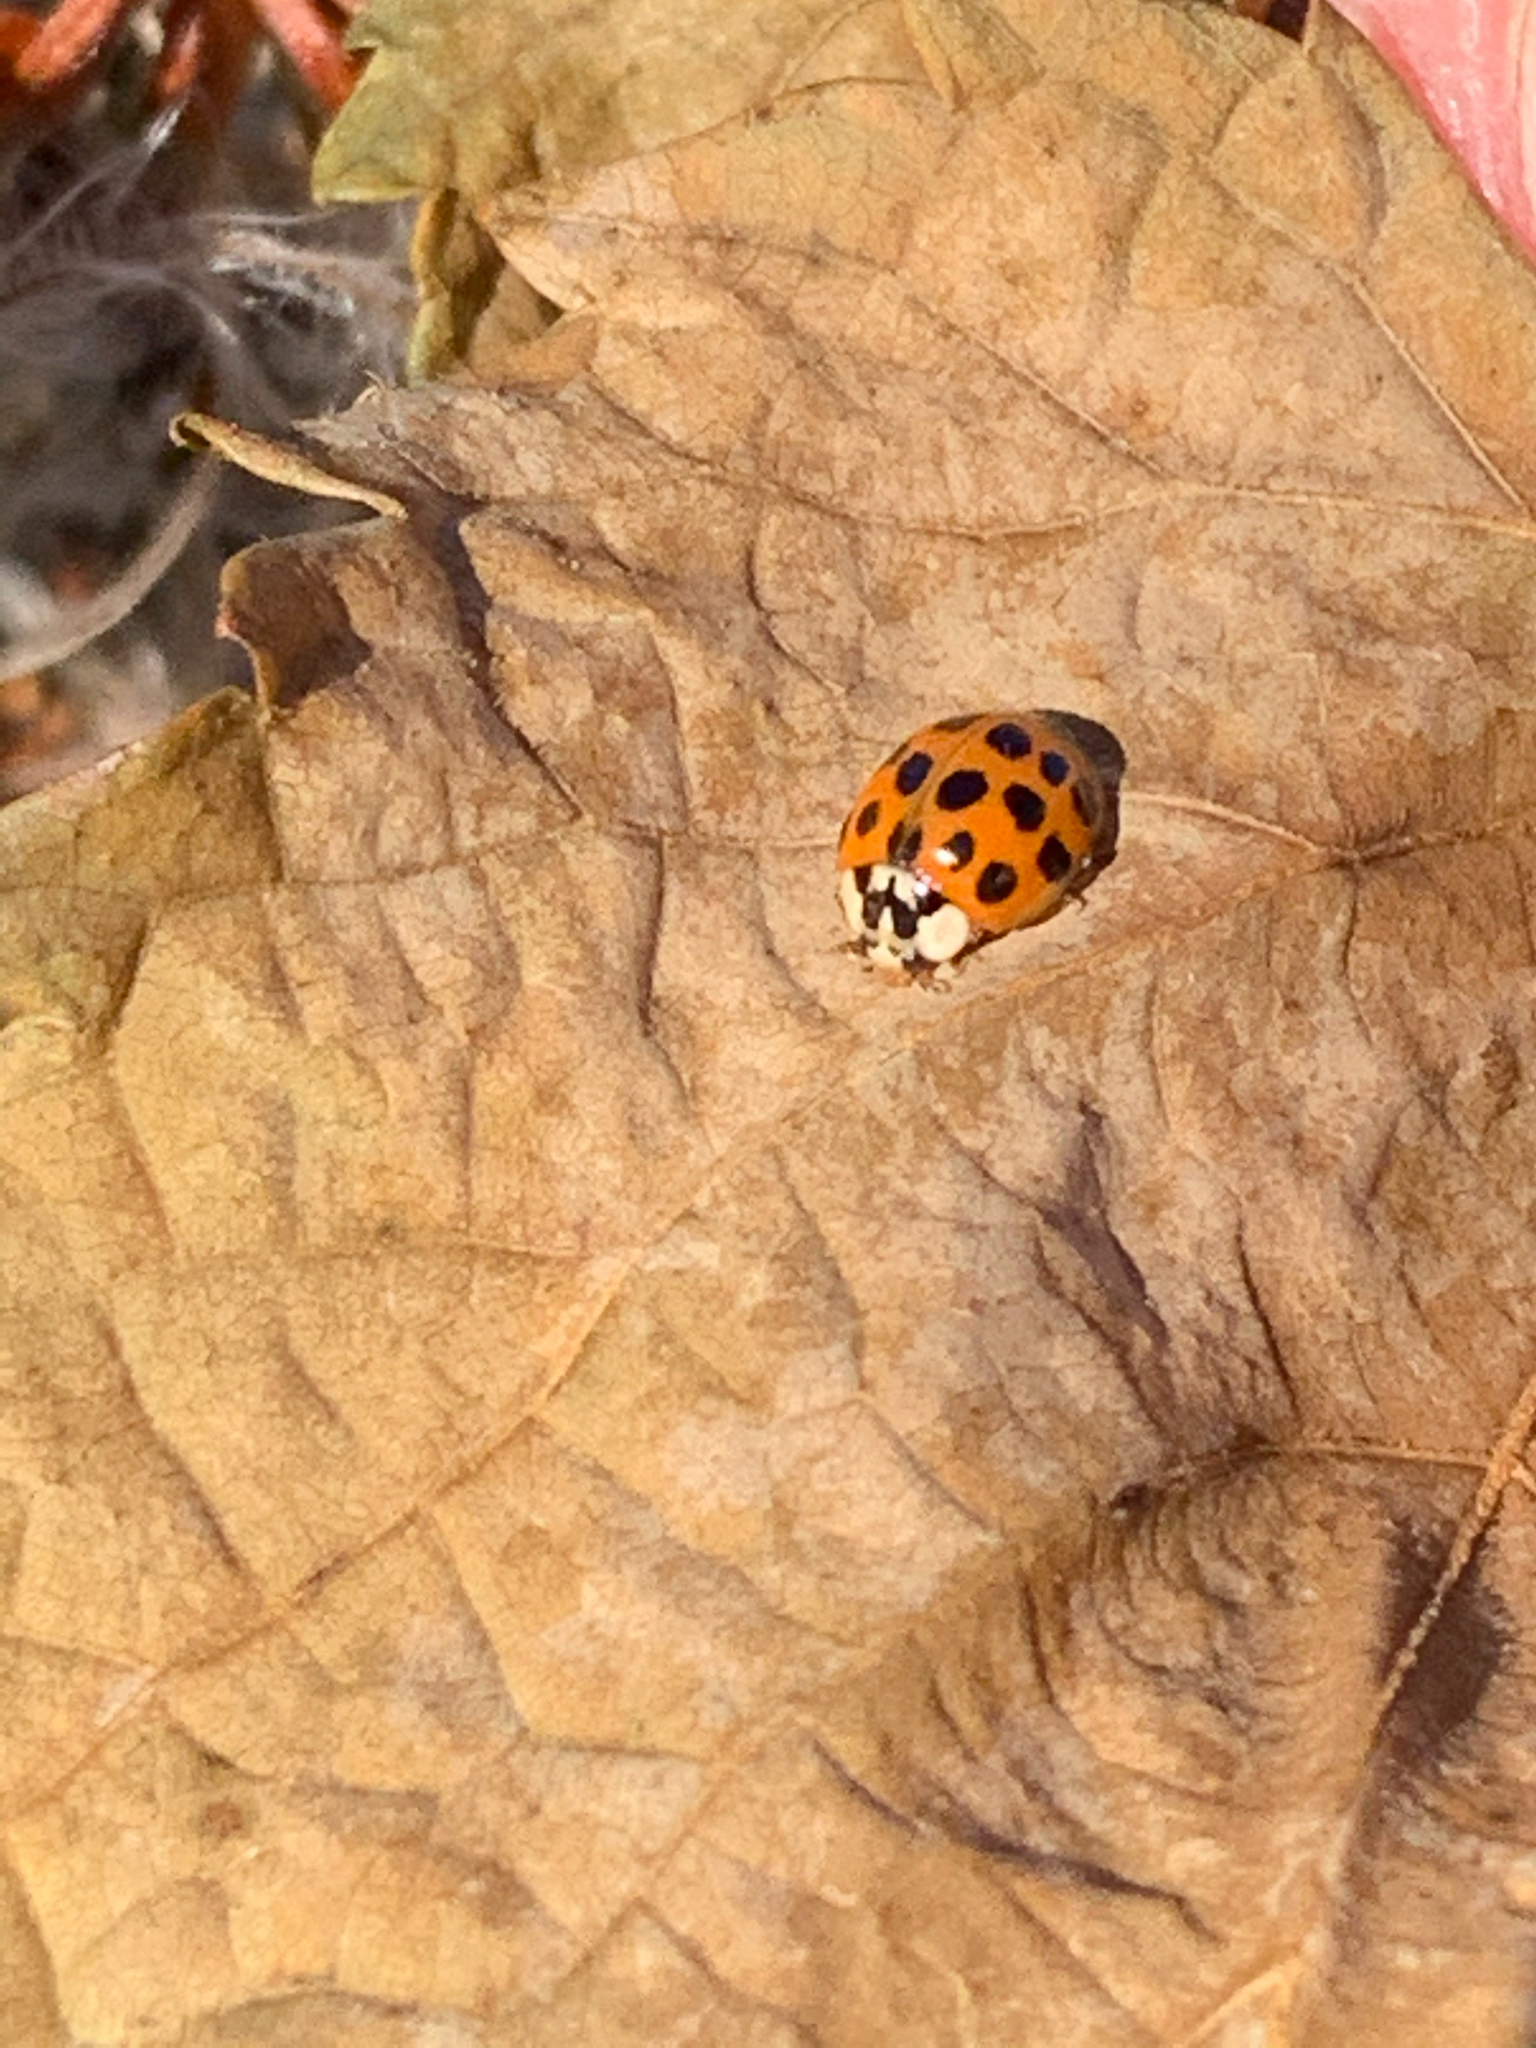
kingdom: Animalia
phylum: Arthropoda
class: Insecta
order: Coleoptera
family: Coccinellidae
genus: Harmonia
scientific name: Harmonia axyridis
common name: Harlequin ladybird
